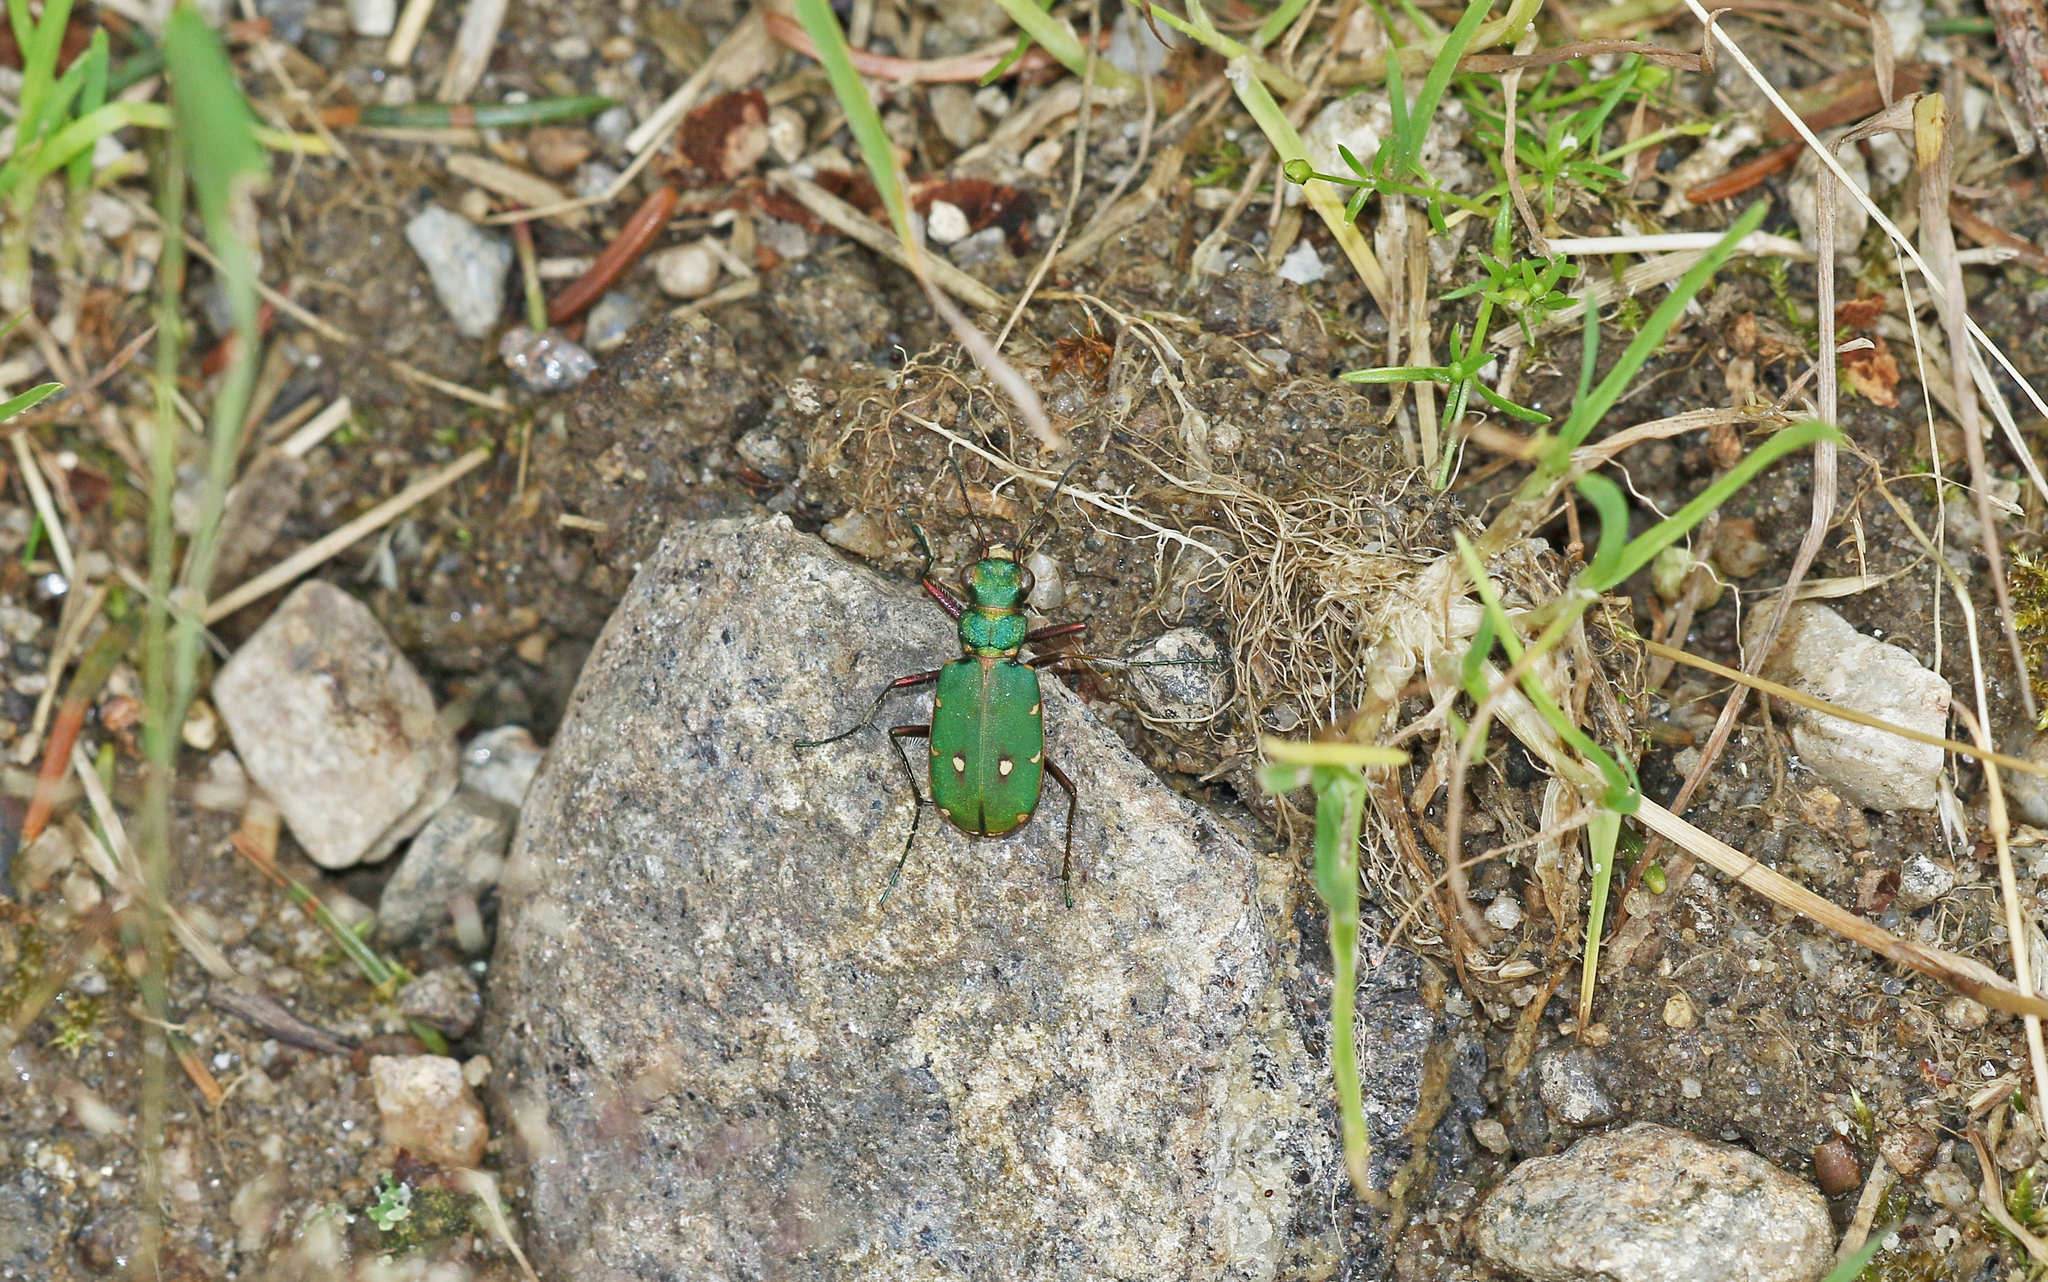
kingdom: Animalia
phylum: Arthropoda
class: Insecta
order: Coleoptera
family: Carabidae
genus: Cicindela
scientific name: Cicindela campestris
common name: Common tiger beetle
